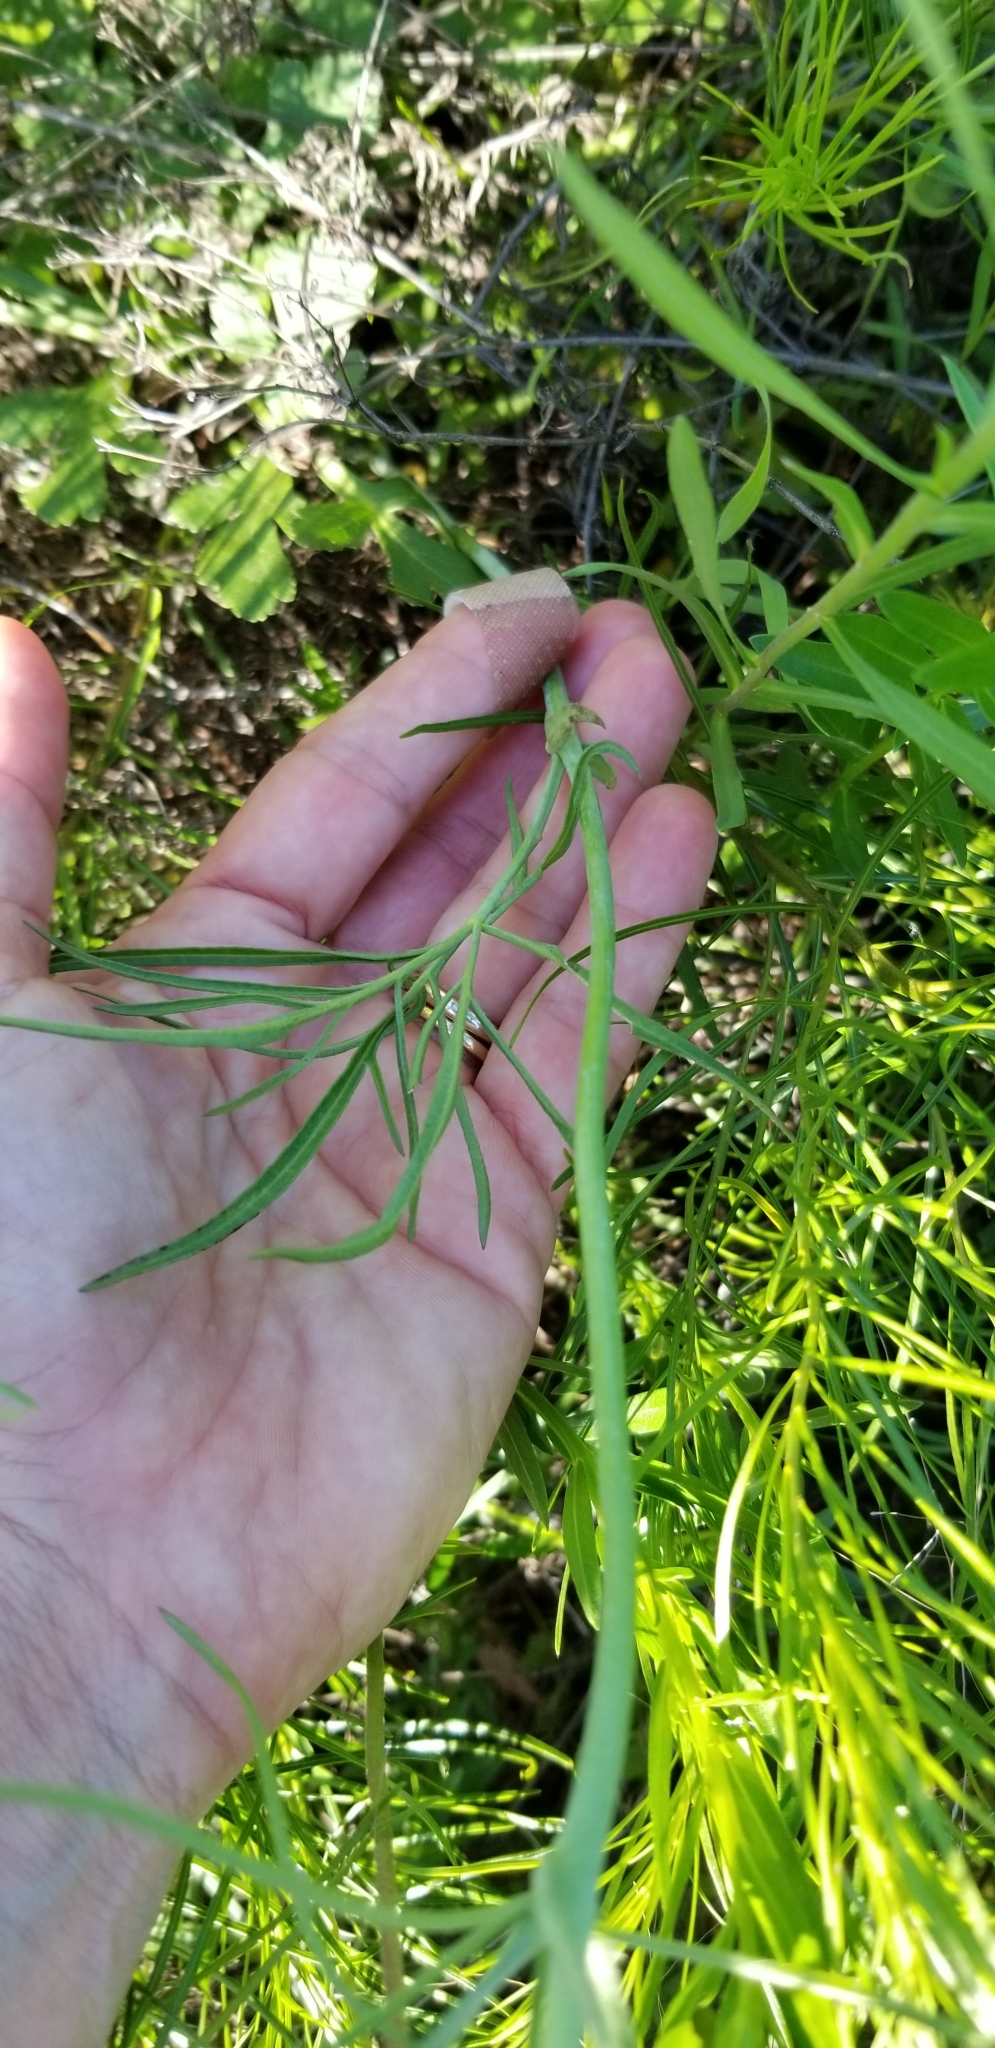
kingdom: Plantae
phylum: Tracheophyta
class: Magnoliopsida
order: Malvales
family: Malvaceae
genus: Callirhoe
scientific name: Callirhoe pedata
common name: Finger poppy-mallow
